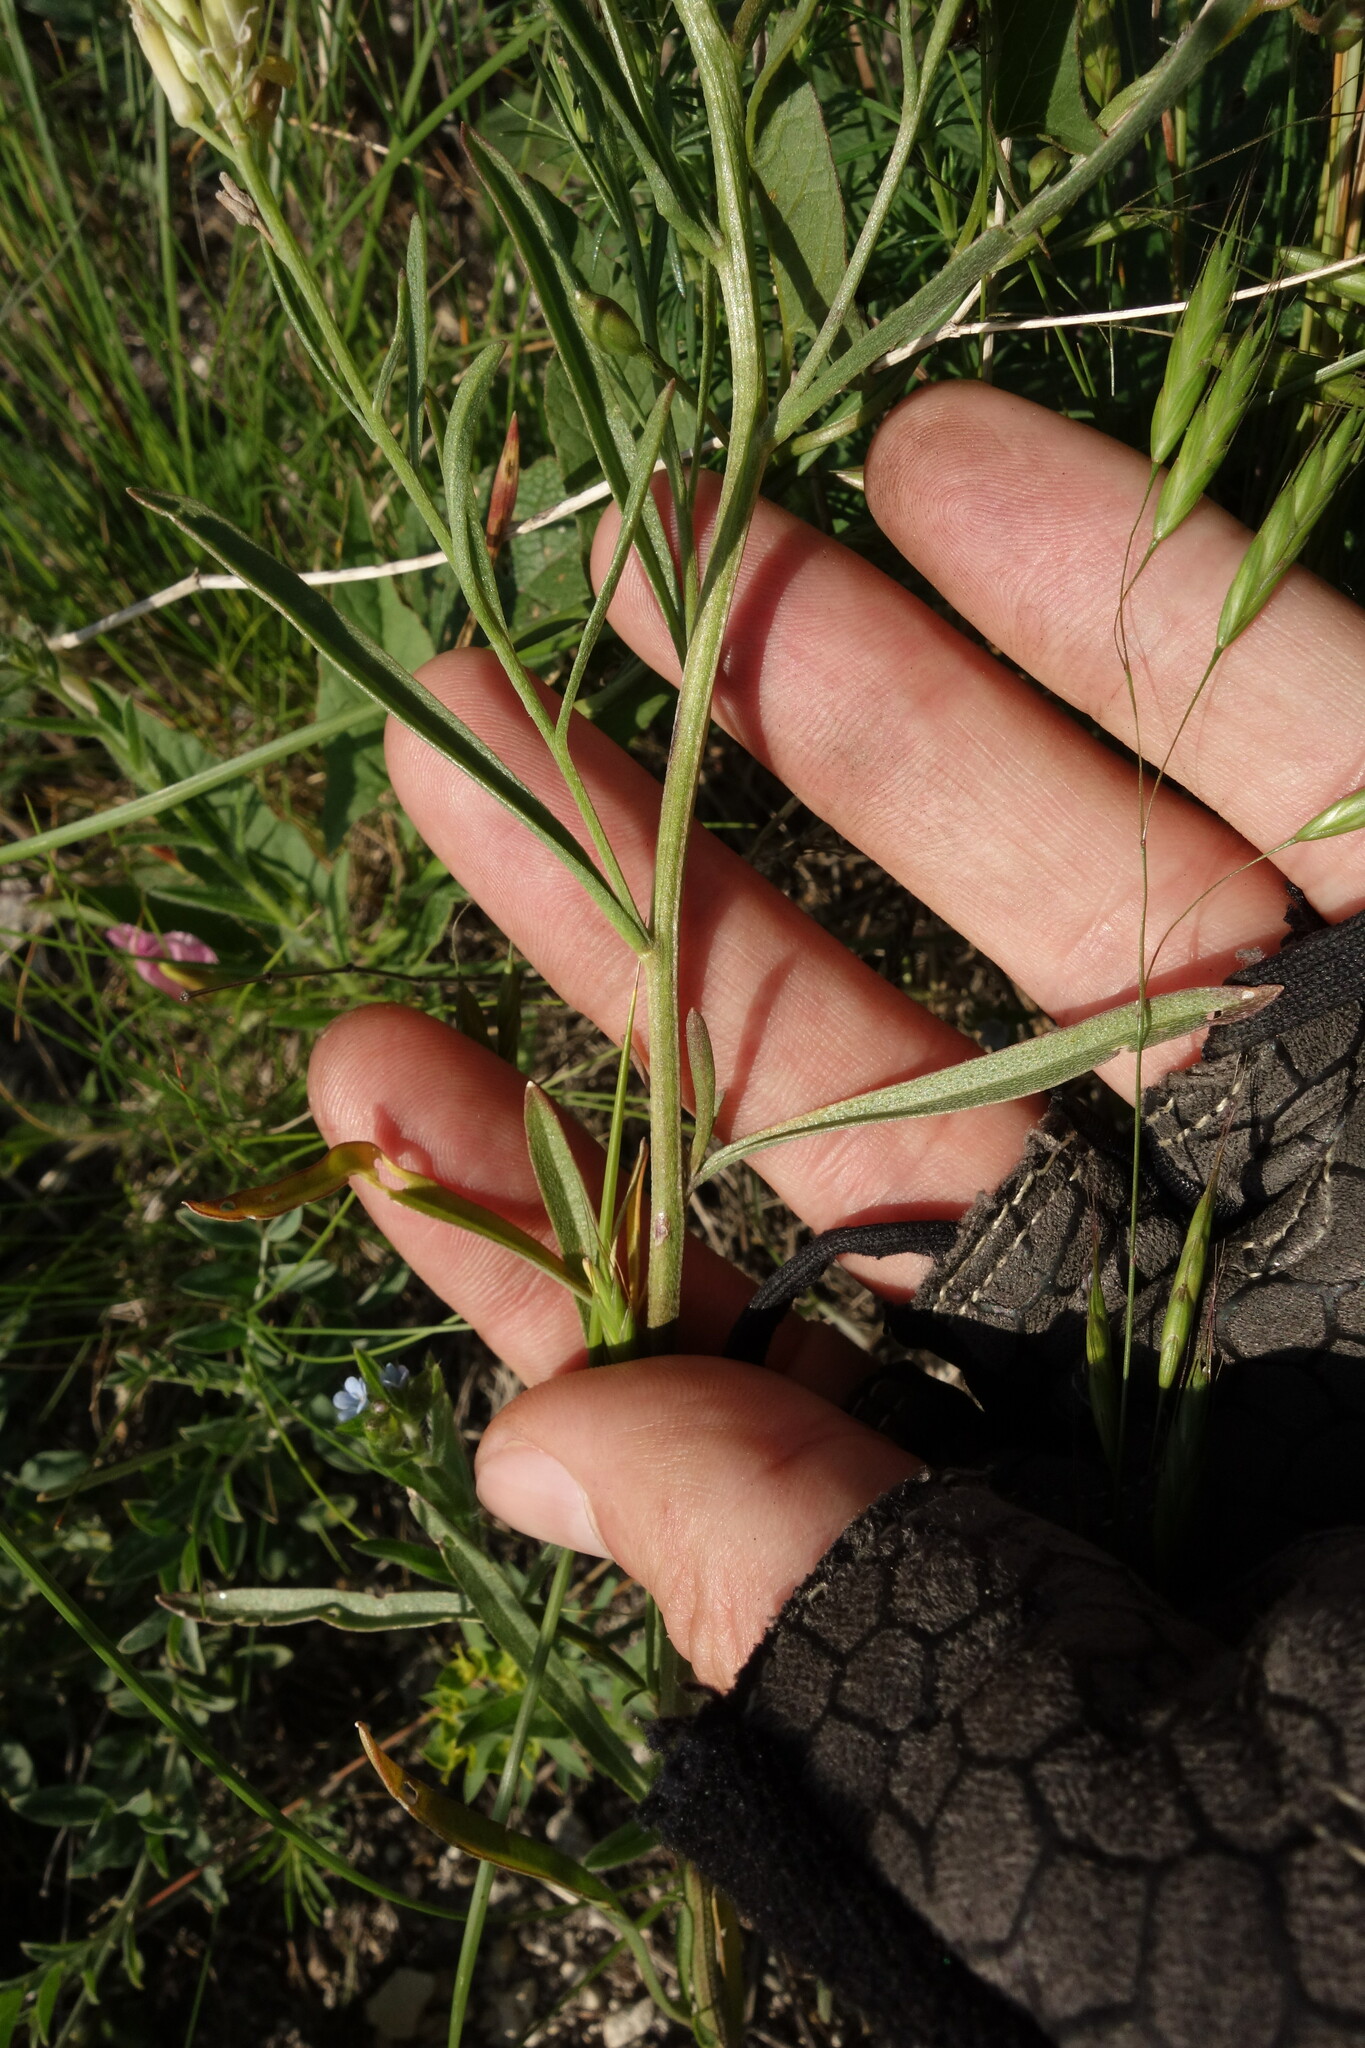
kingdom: Plantae
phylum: Tracheophyta
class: Magnoliopsida
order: Brassicales
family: Brassicaceae
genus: Erysimum
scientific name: Erysimum diffusum
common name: Diffuse wallflower
